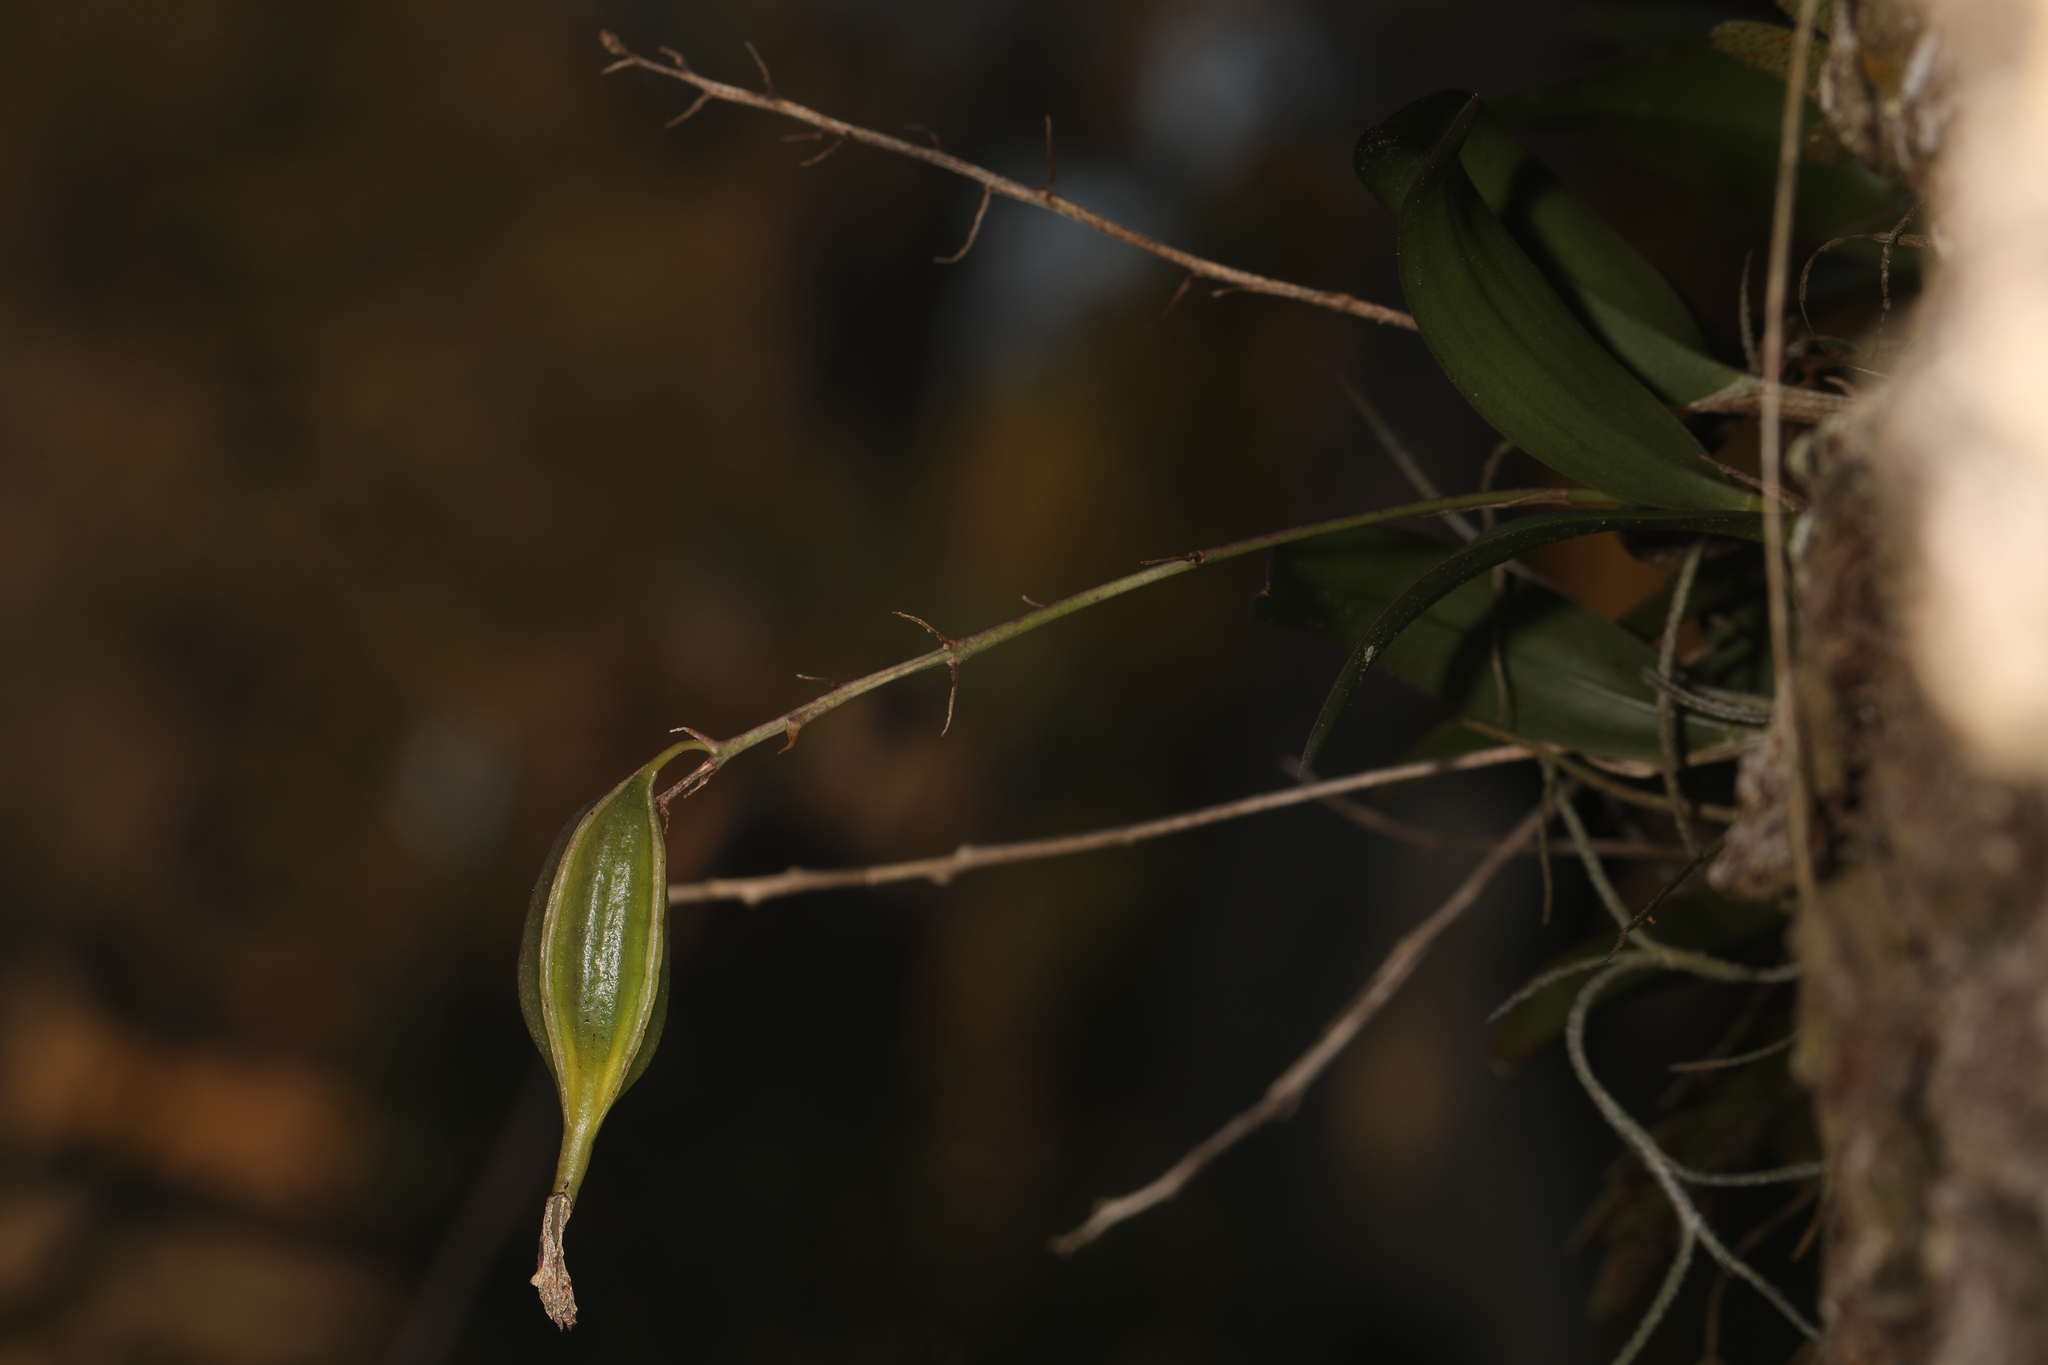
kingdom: Plantae
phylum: Tracheophyta
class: Liliopsida
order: Asparagales
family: Orchidaceae
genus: Epidendrum
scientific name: Epidendrum conopseum
